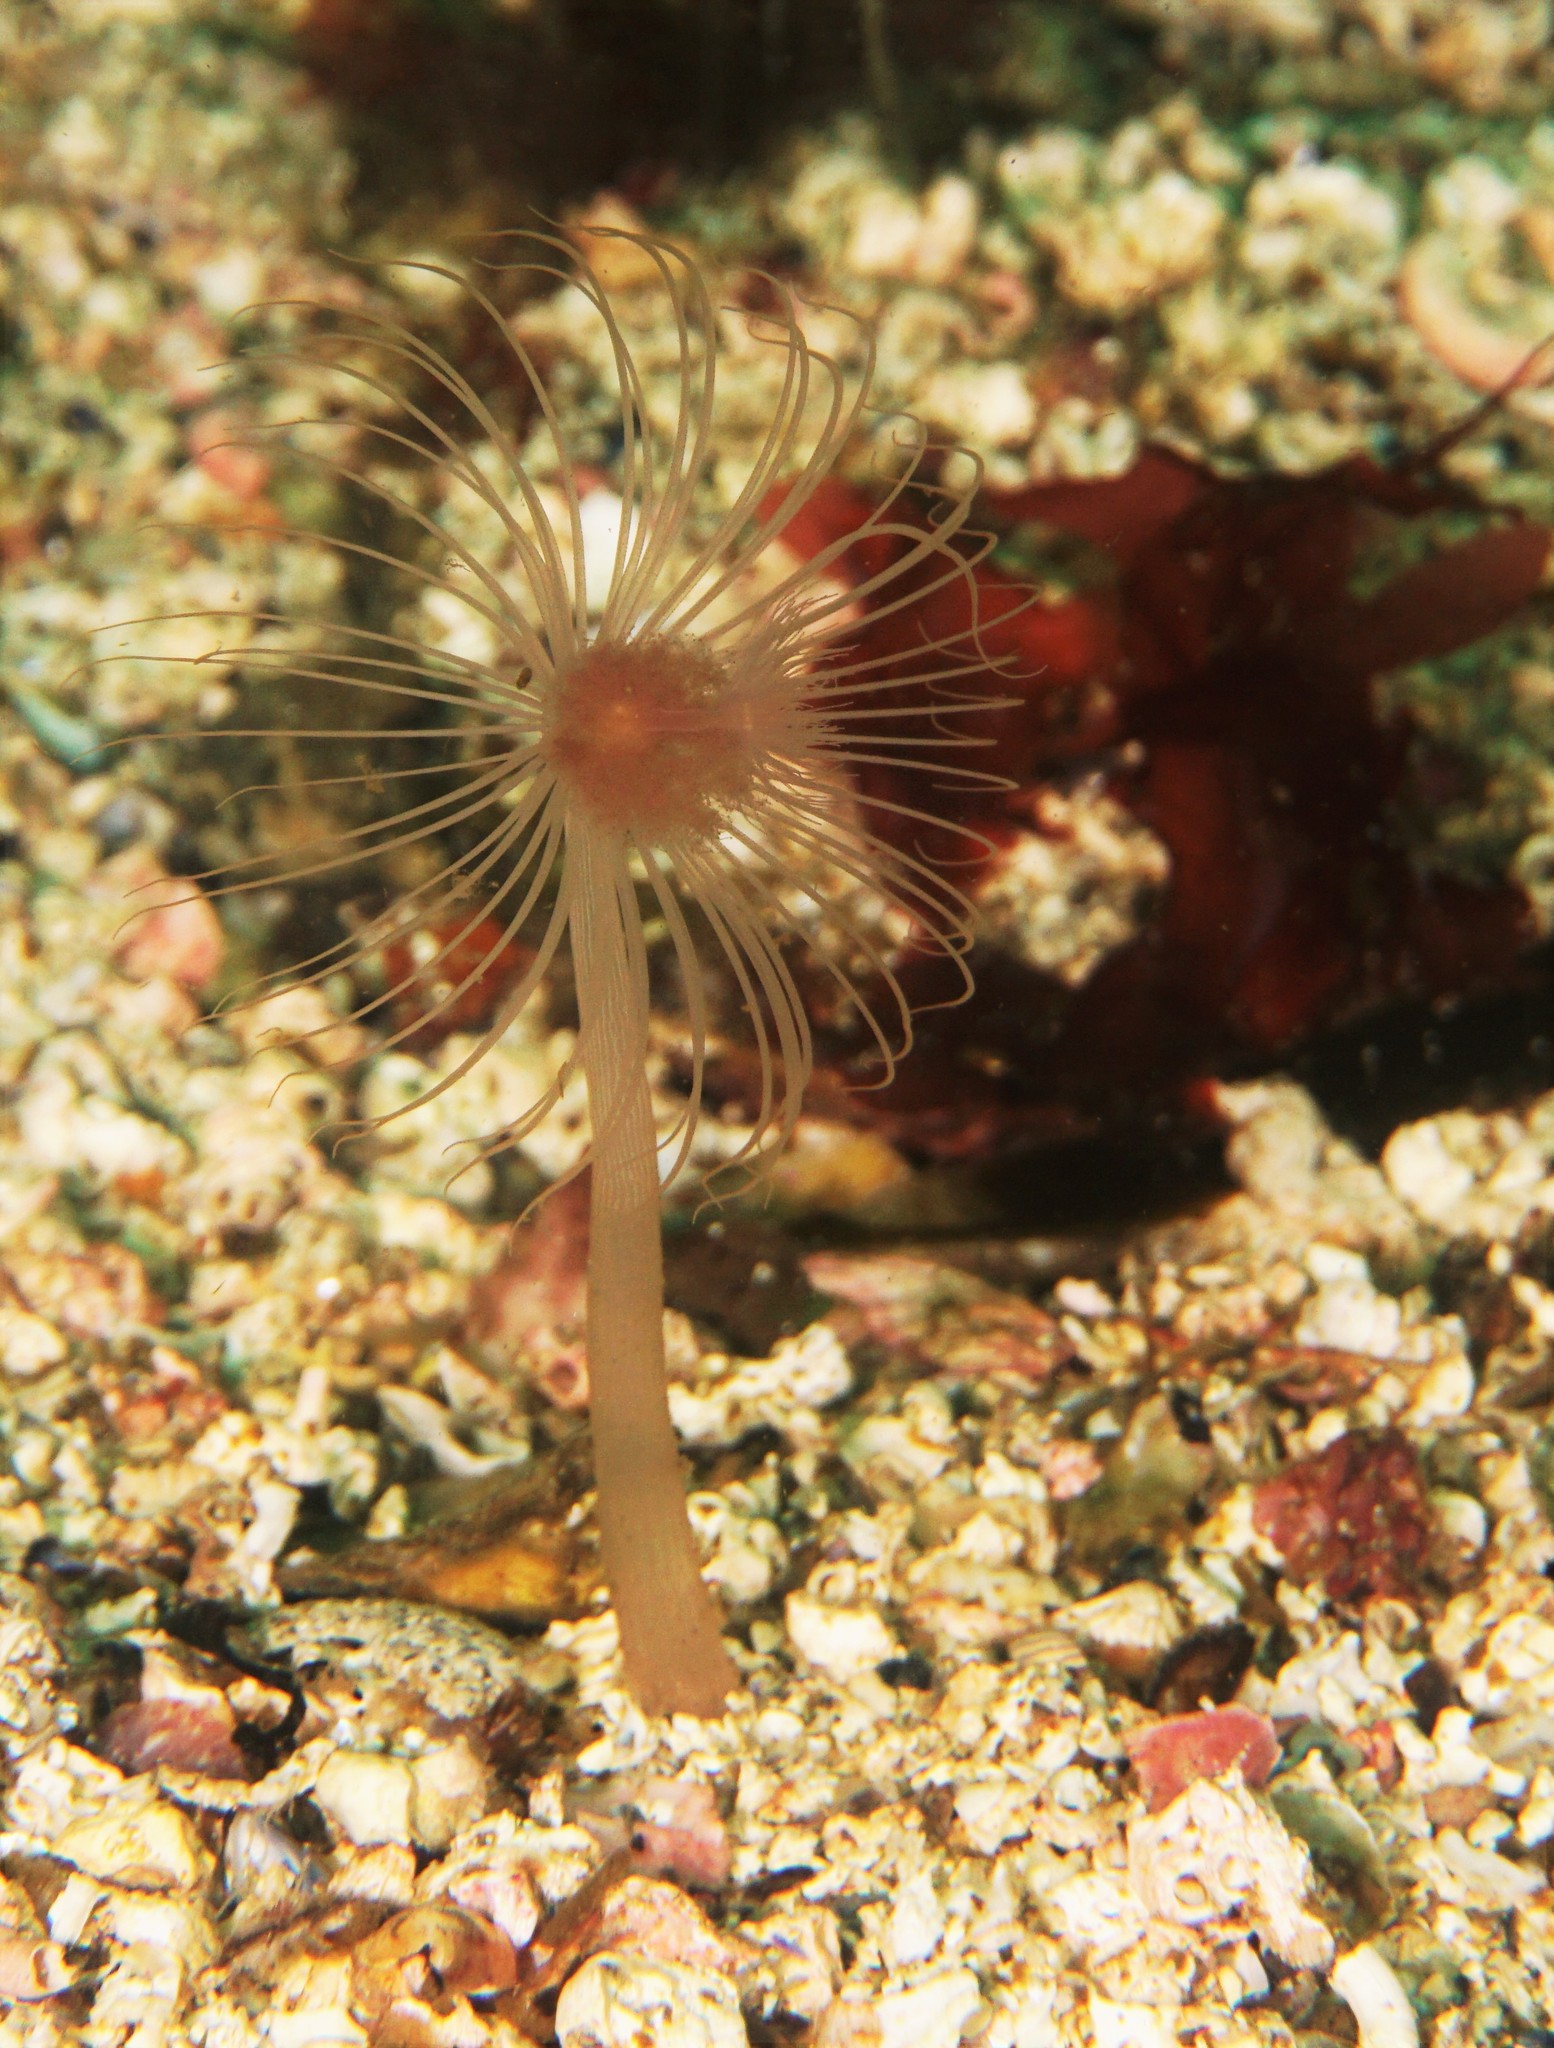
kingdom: Animalia
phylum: Cnidaria
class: Hydrozoa
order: Anthoathecata
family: Corymorphidae
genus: Corymorpha
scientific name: Corymorpha nutans
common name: Nodding hydroid
